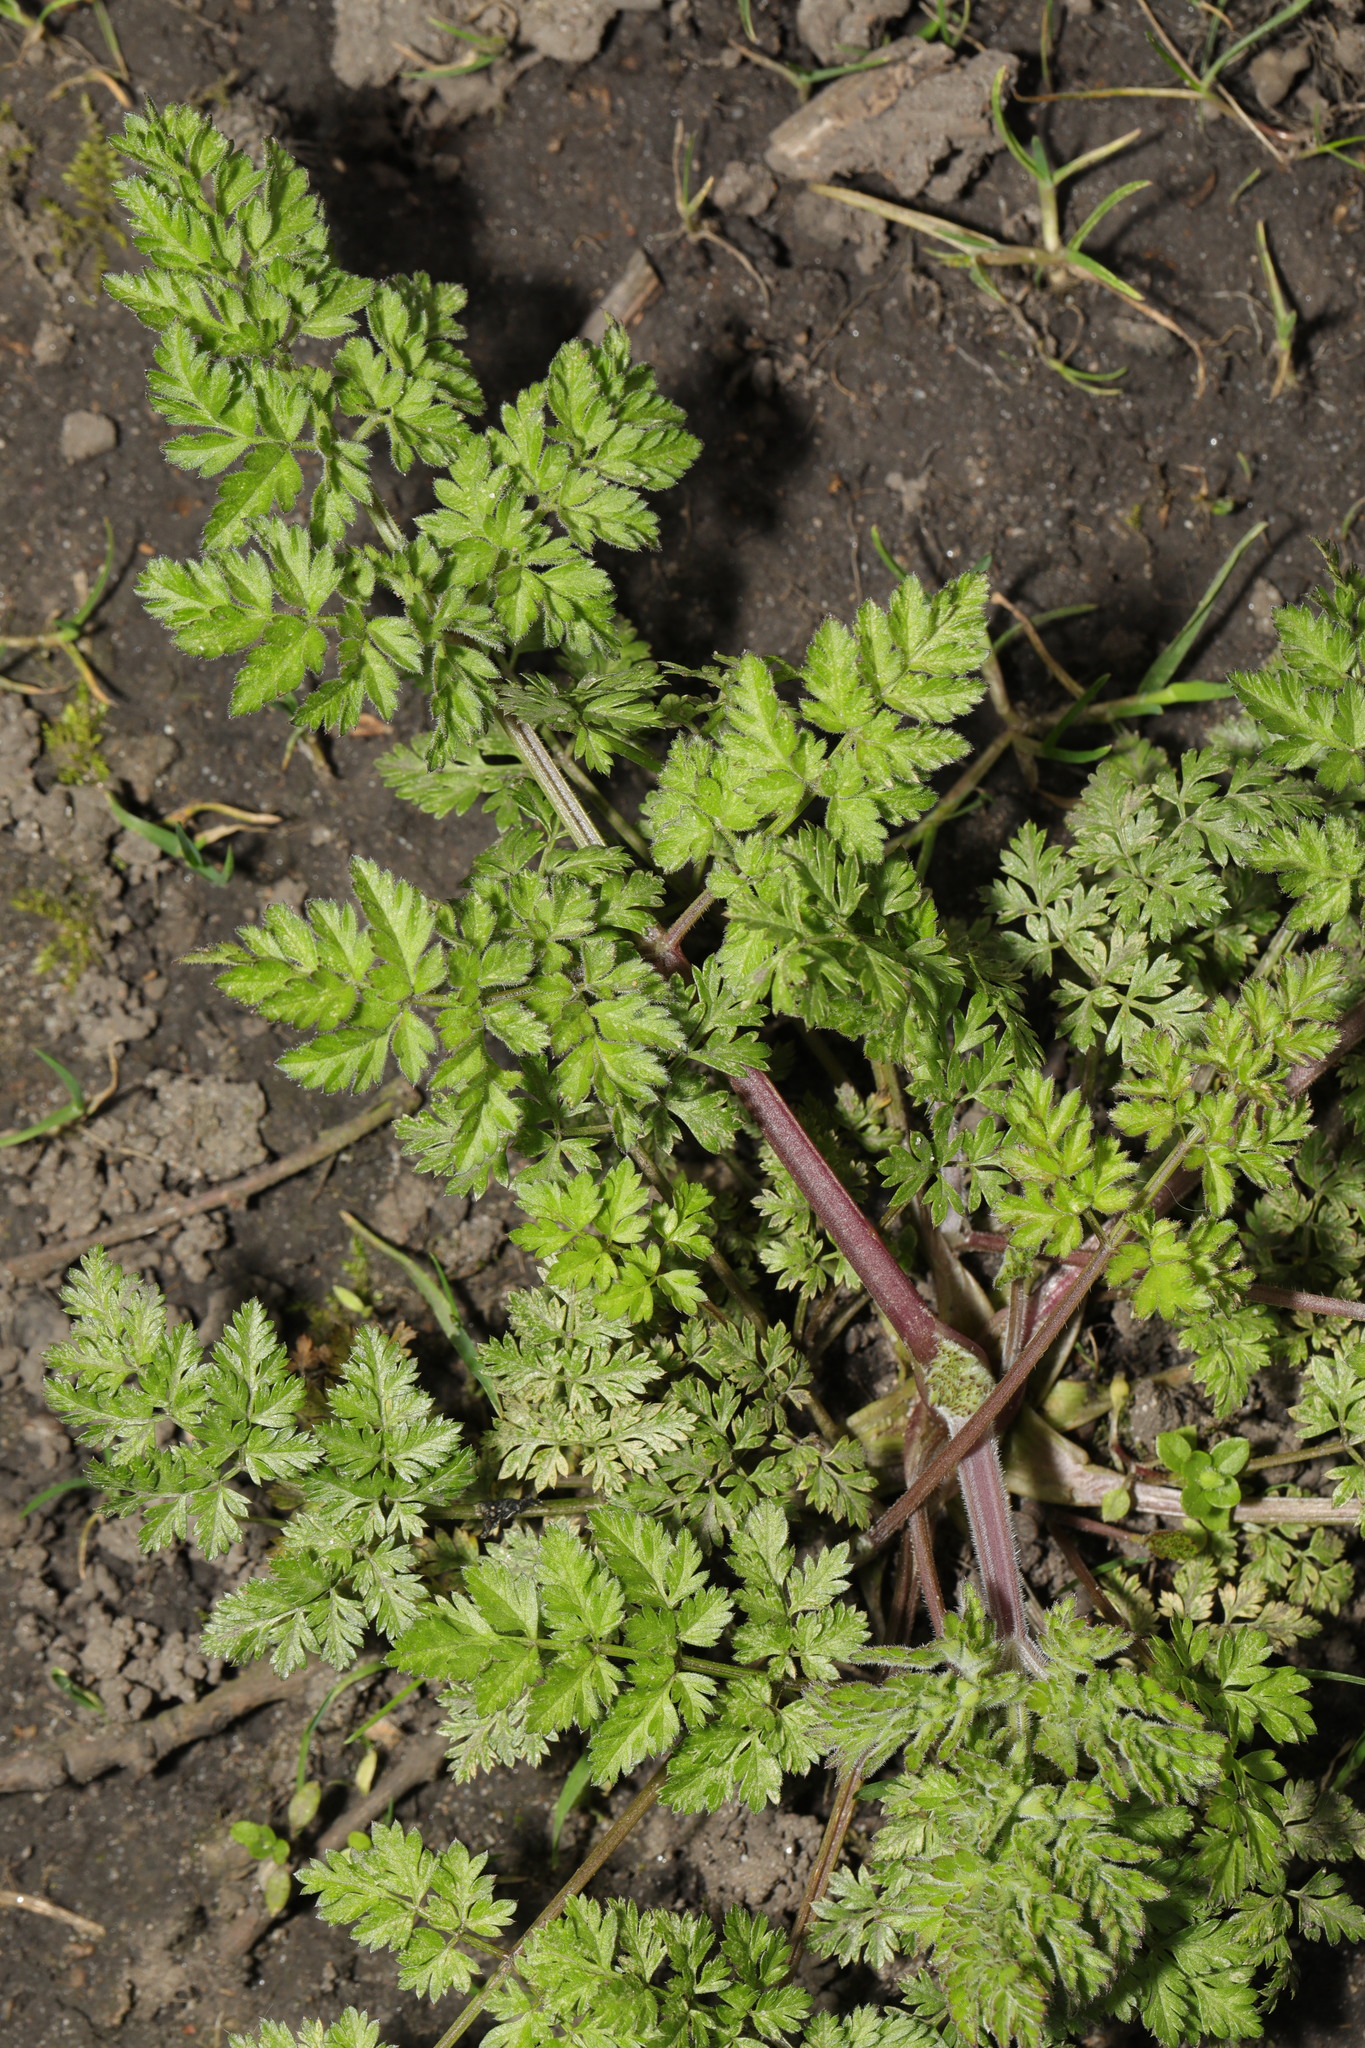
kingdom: Plantae
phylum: Tracheophyta
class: Magnoliopsida
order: Apiales
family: Apiaceae
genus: Anthriscus
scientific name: Anthriscus sylvestris
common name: Cow parsley
